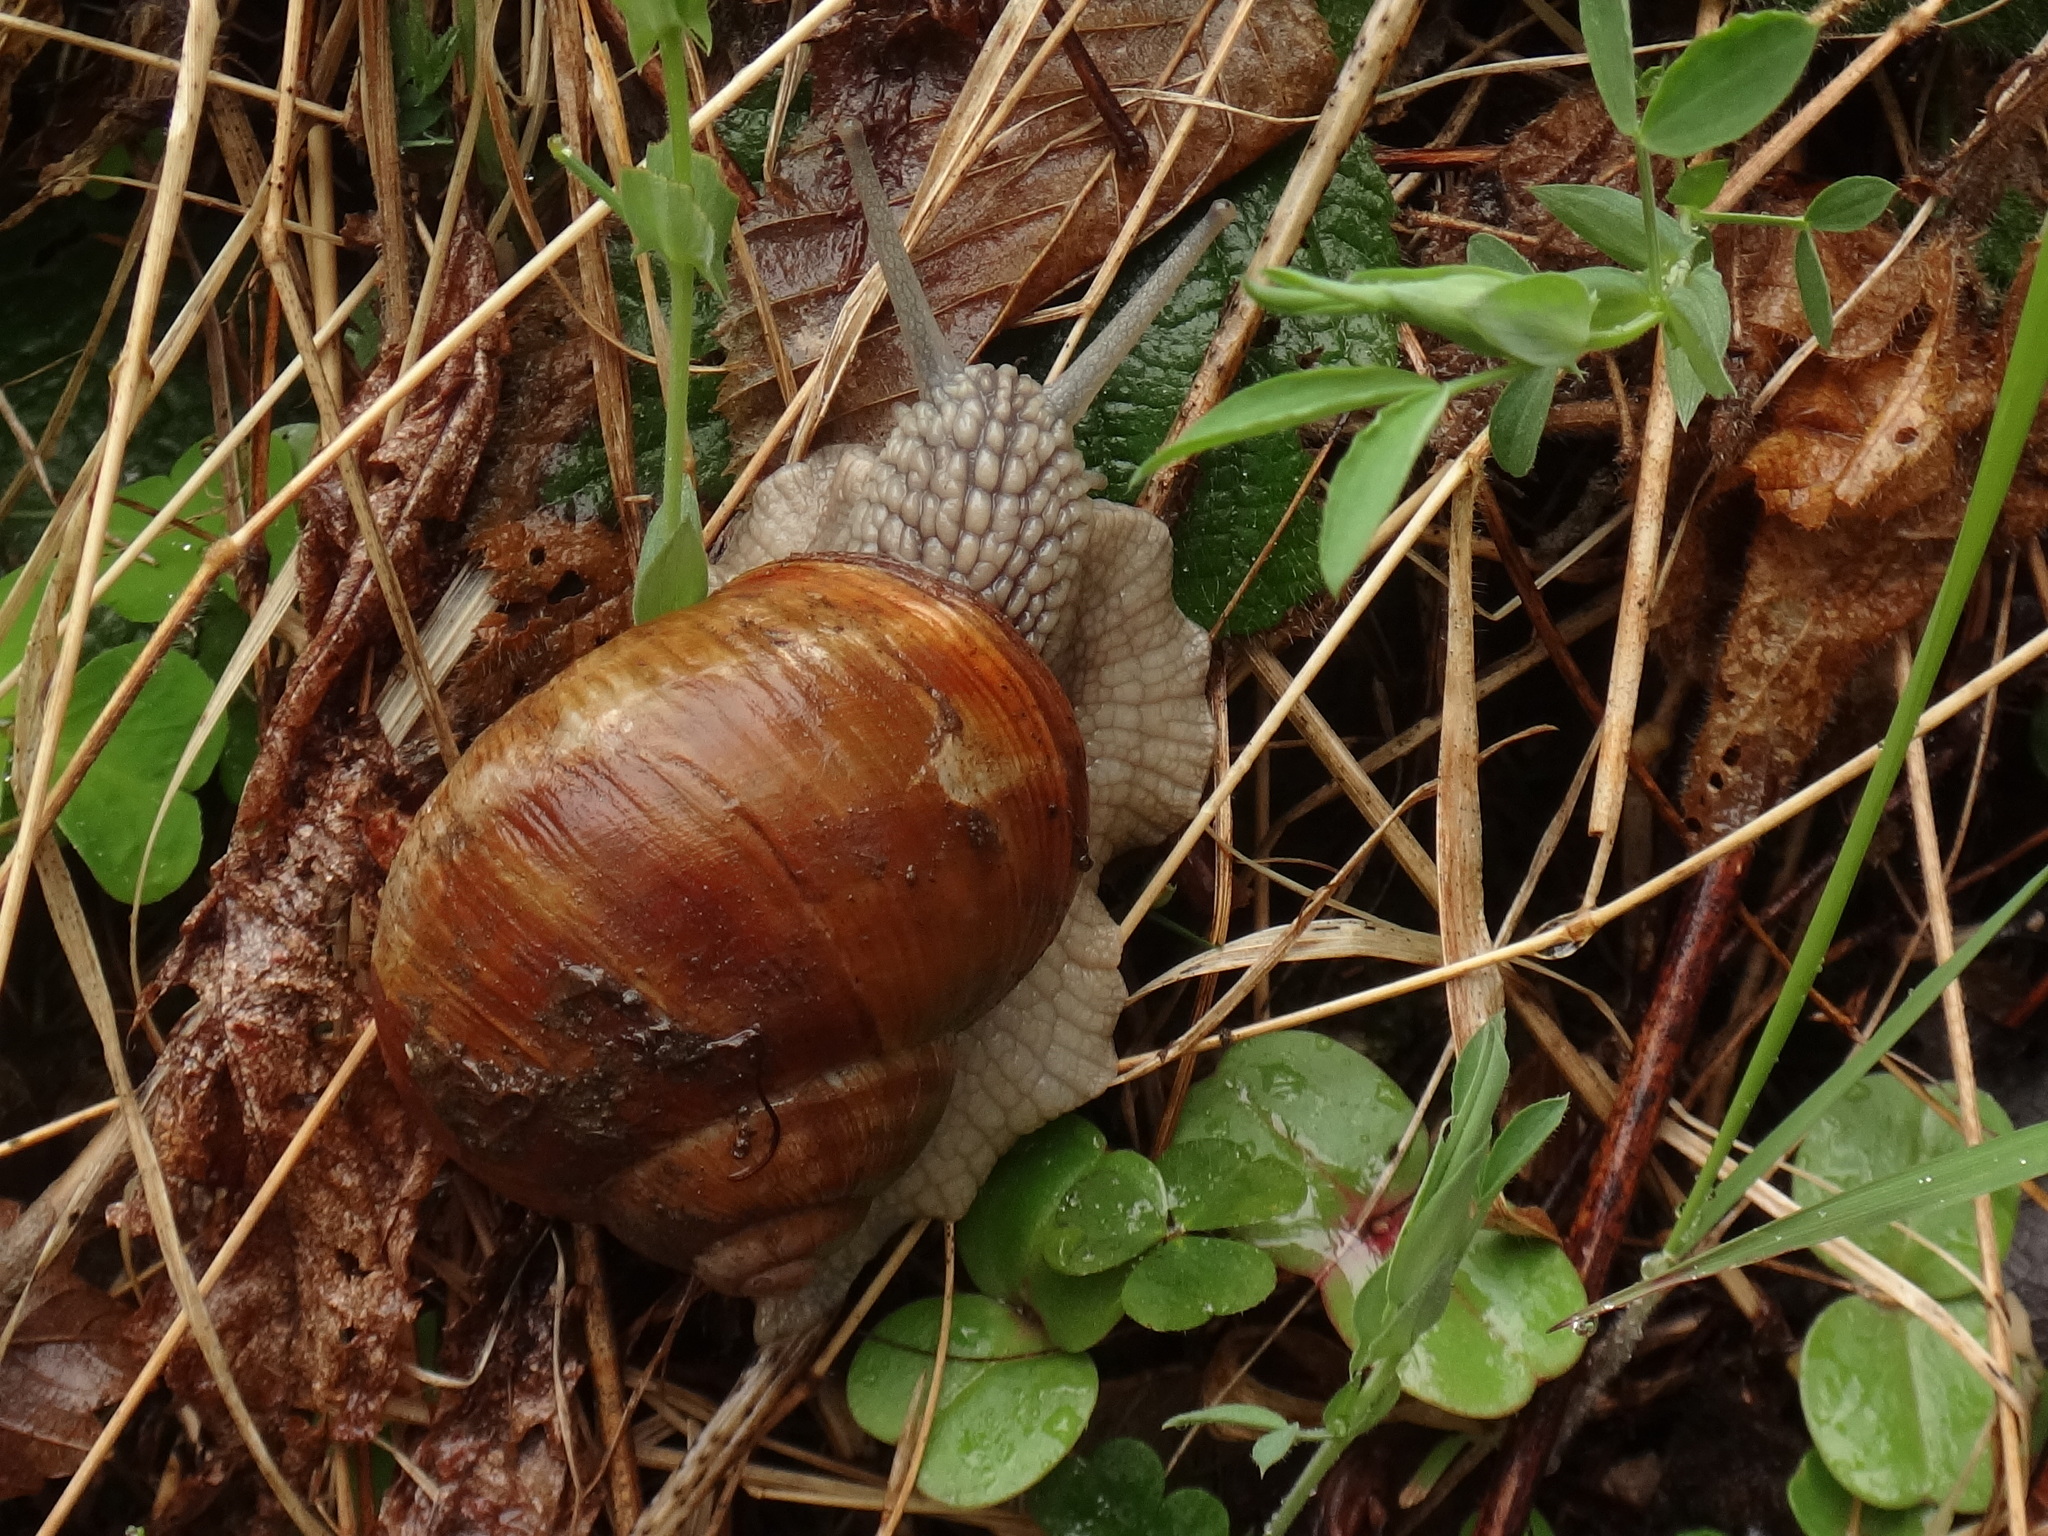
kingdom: Animalia
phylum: Mollusca
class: Gastropoda
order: Stylommatophora
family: Helicidae
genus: Helix
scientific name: Helix pomatia
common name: Roman snail
